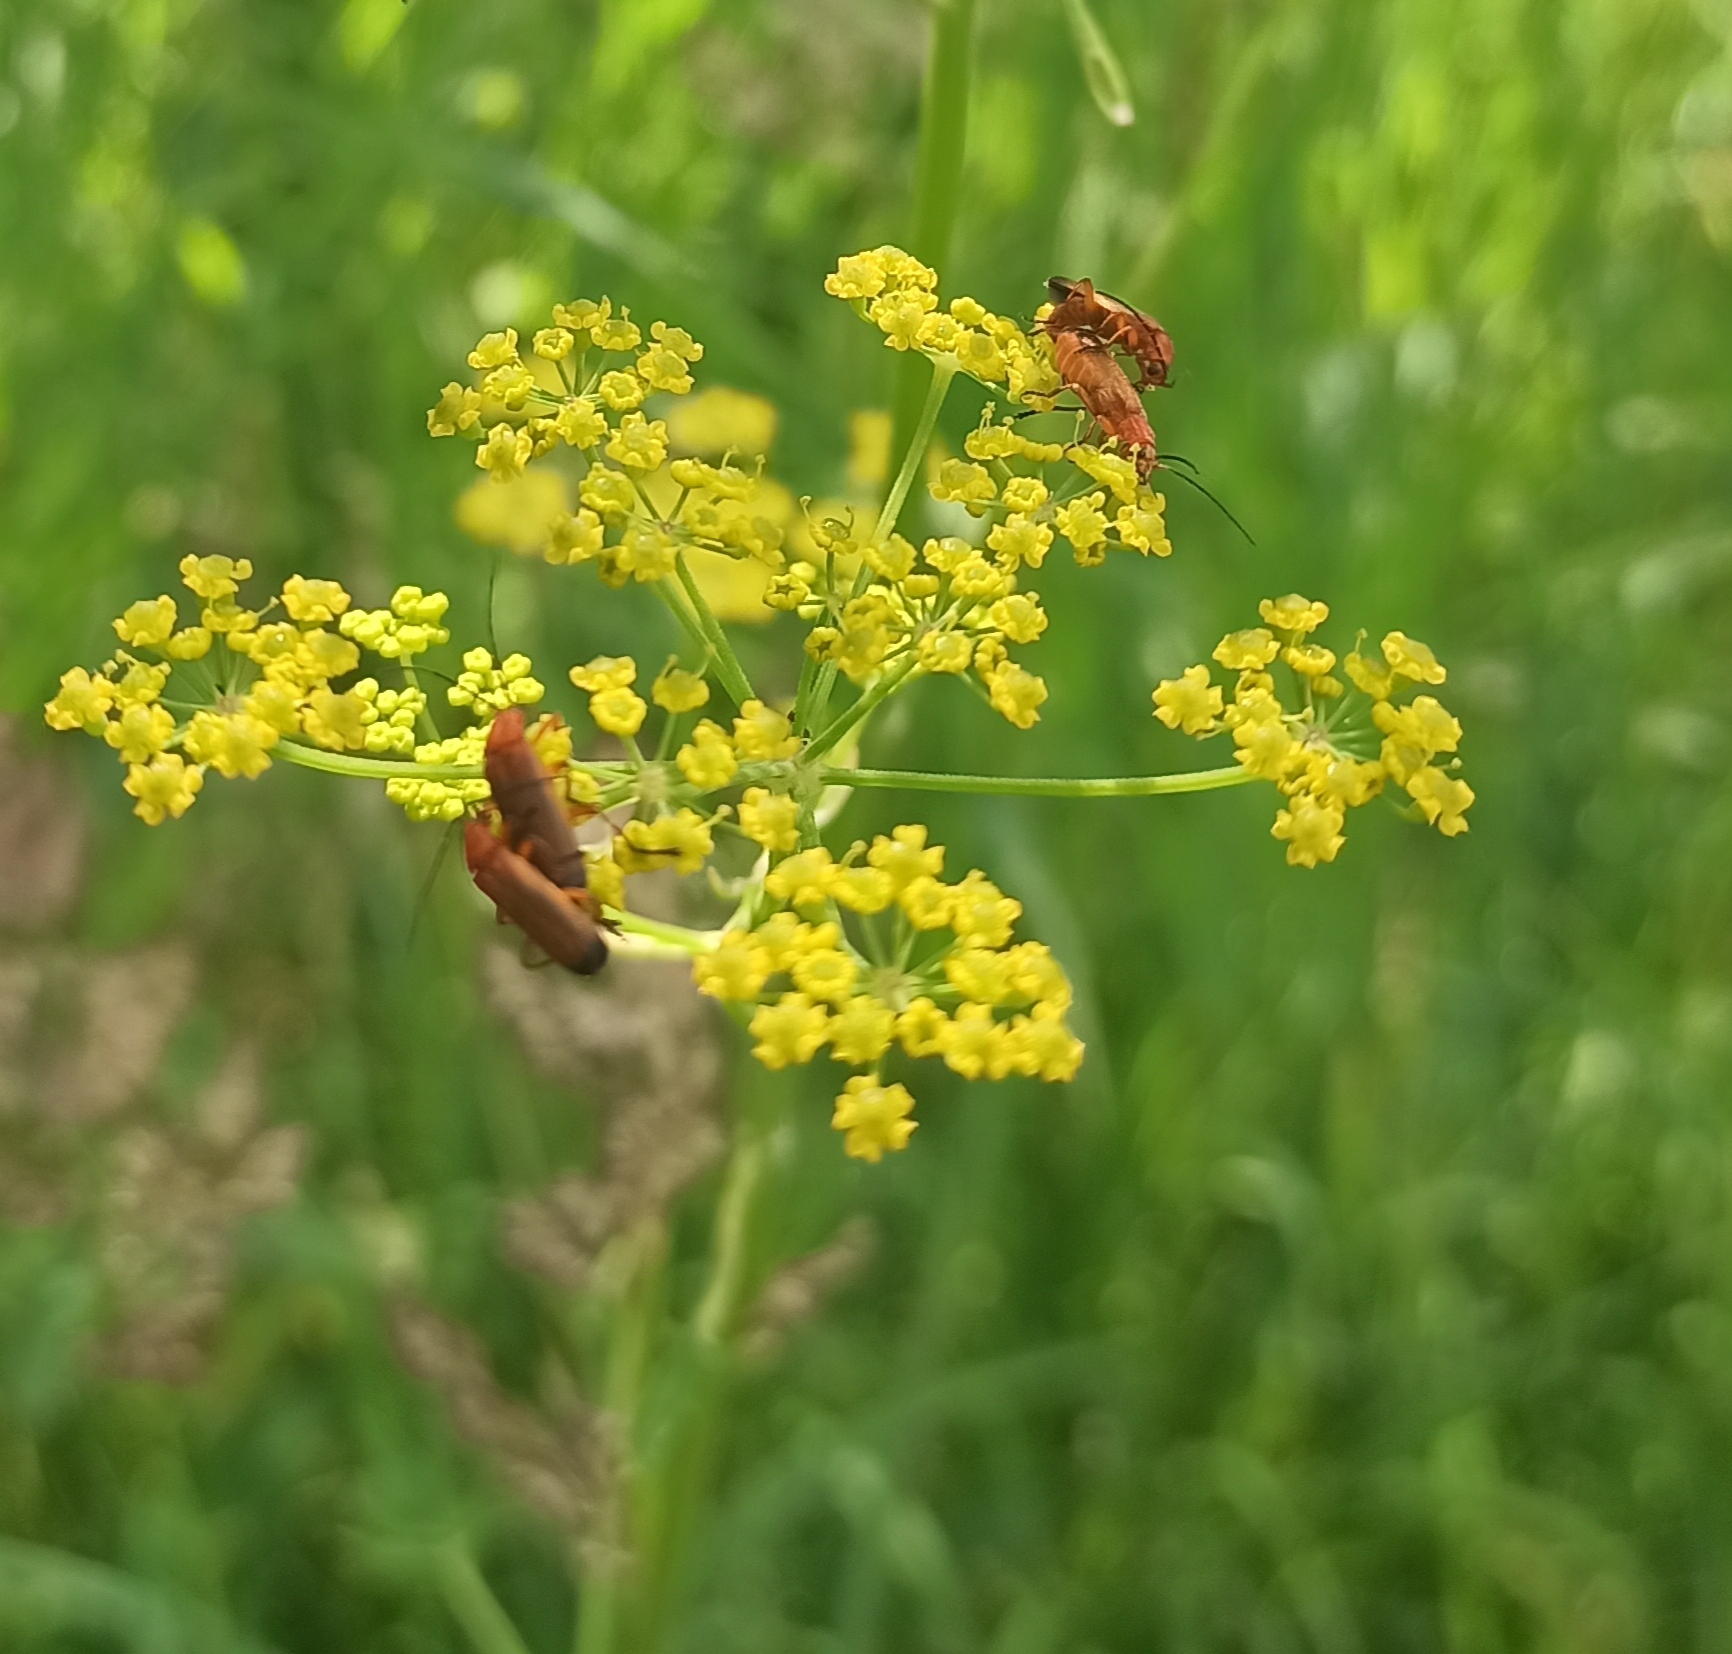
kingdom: Animalia
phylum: Arthropoda
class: Insecta
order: Coleoptera
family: Cantharidae
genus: Rhagonycha
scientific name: Rhagonycha fulva
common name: Common red soldier beetle
